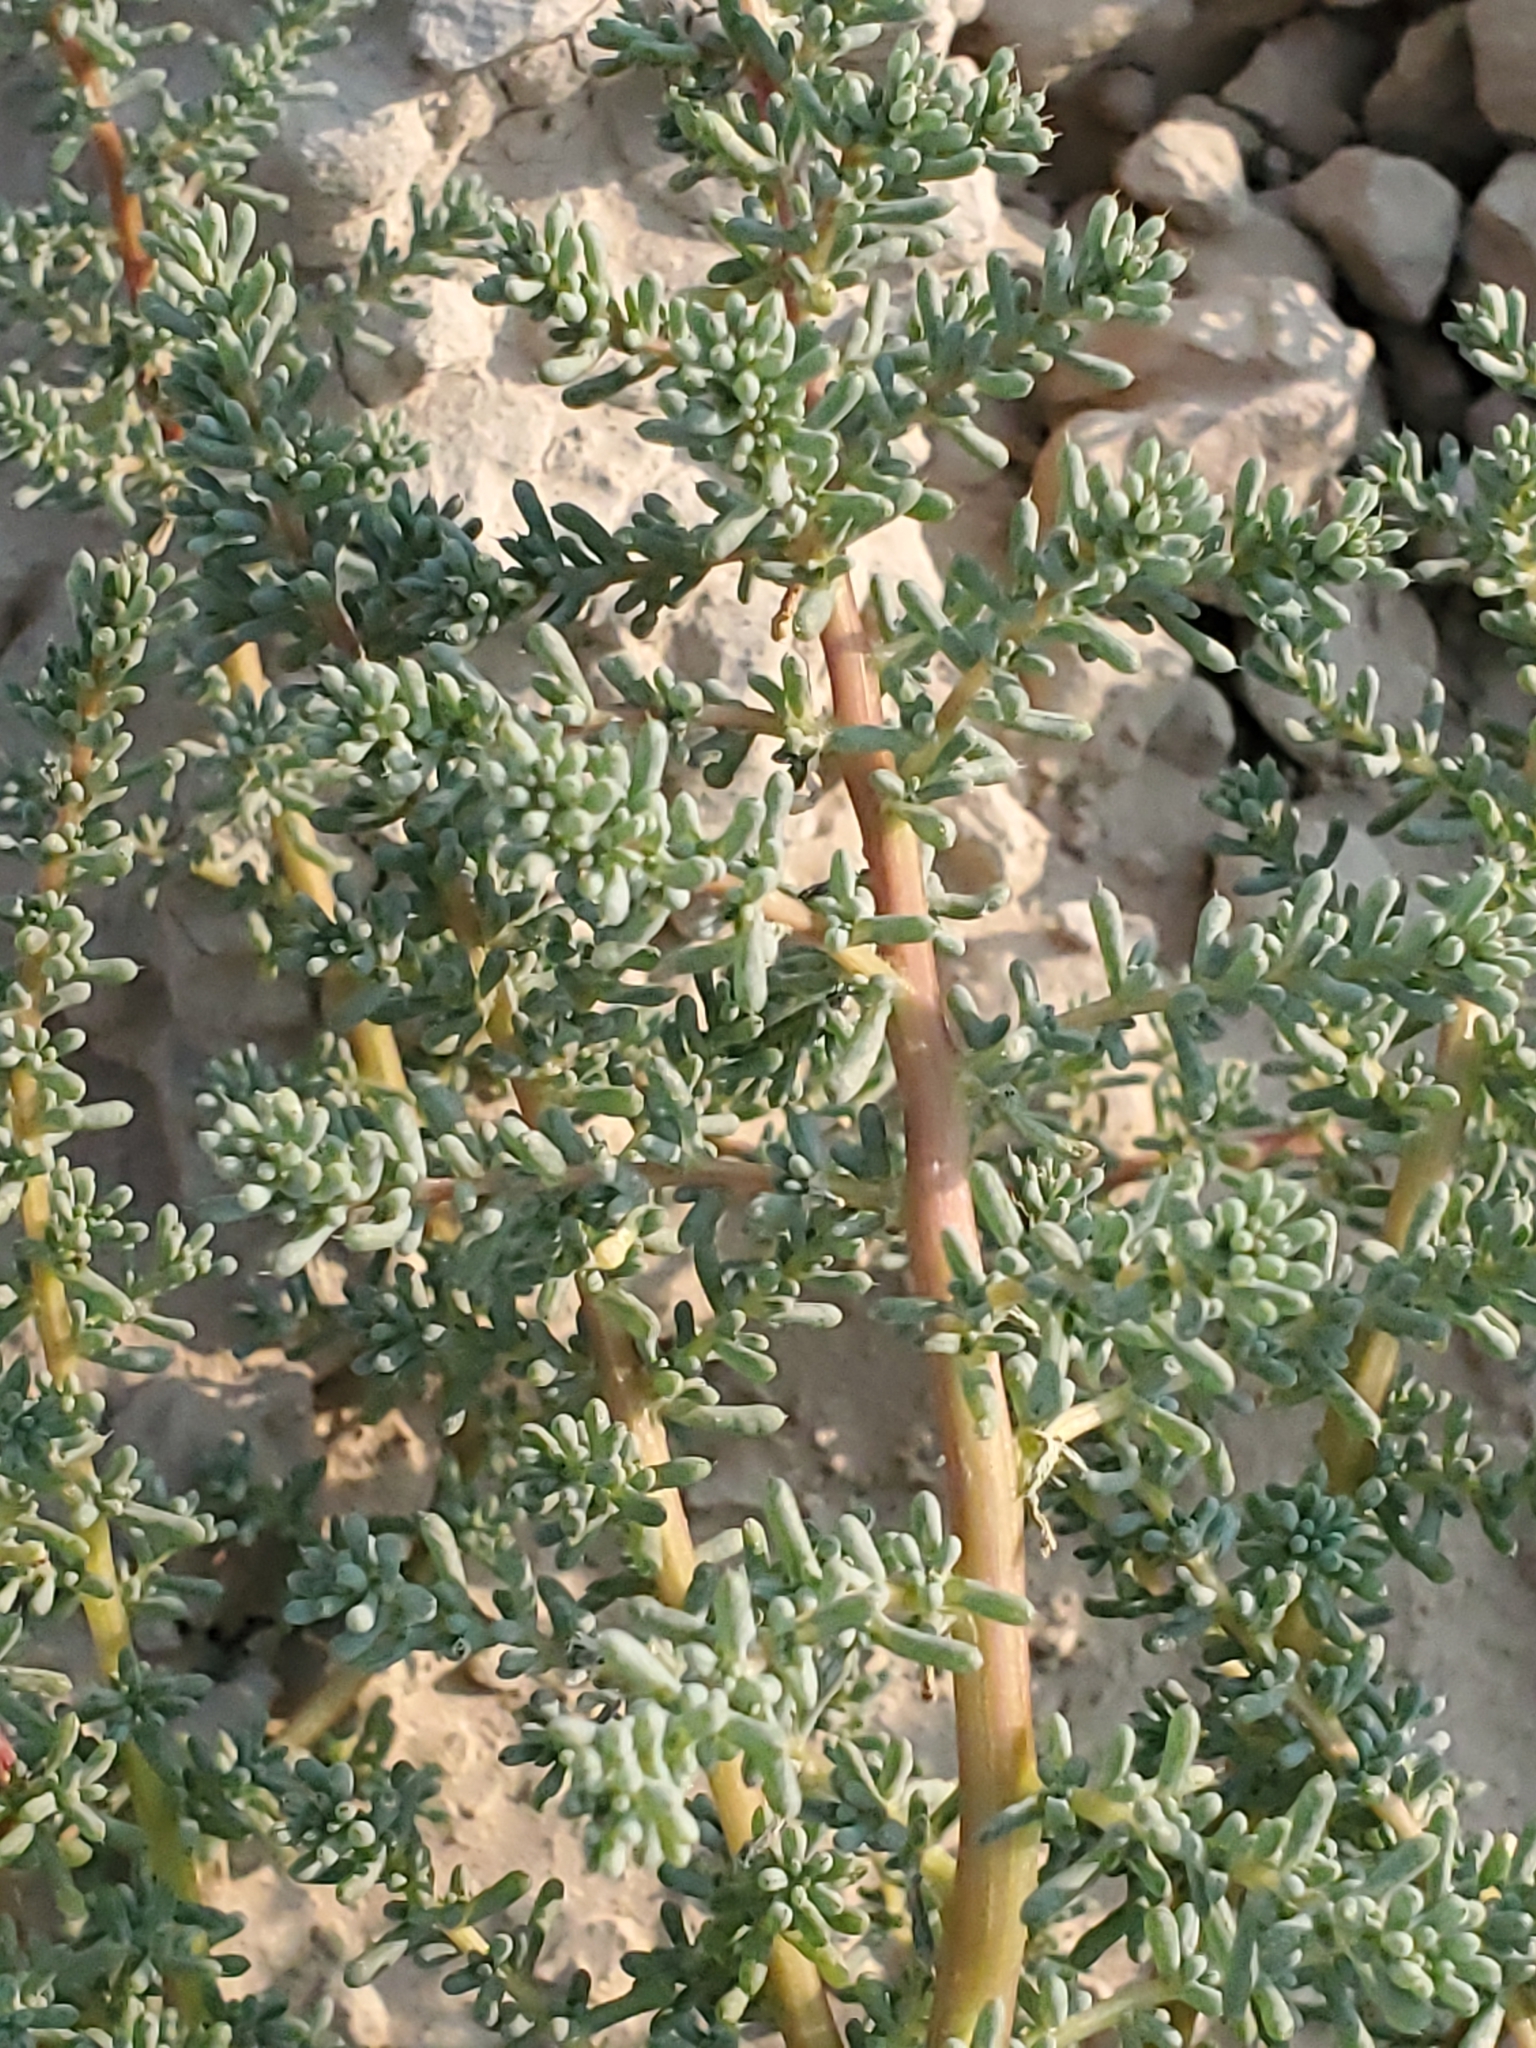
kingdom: Plantae
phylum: Tracheophyta
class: Magnoliopsida
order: Caryophyllales
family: Amaranthaceae
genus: Halogeton
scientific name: Halogeton glomeratus
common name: Saltlover
